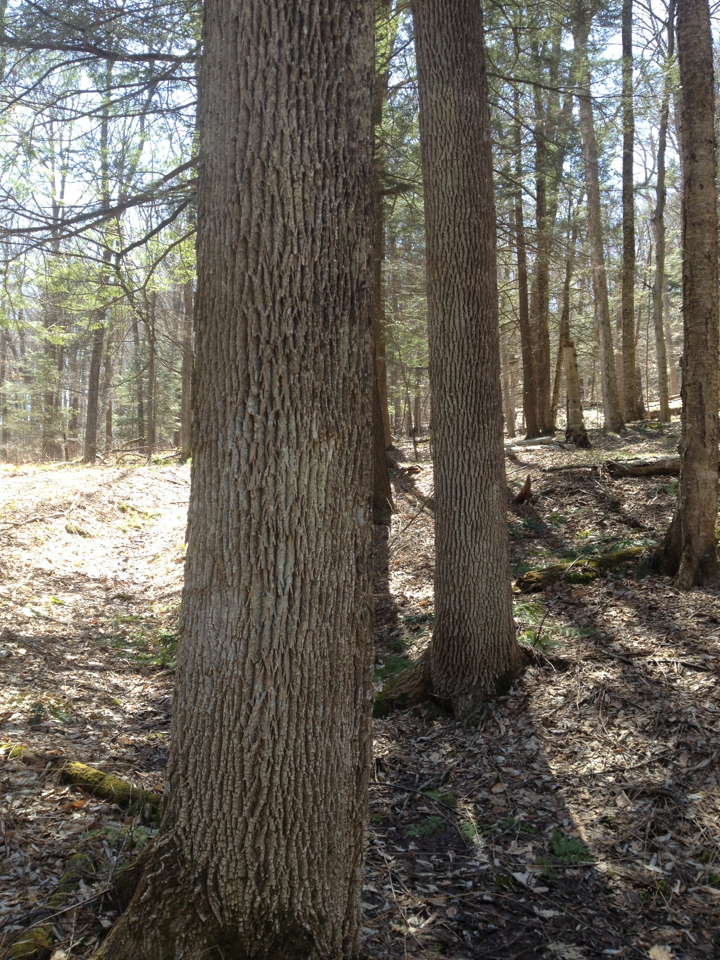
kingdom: Plantae
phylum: Tracheophyta
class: Magnoliopsida
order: Lamiales
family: Oleaceae
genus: Fraxinus
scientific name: Fraxinus americana
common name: White ash
